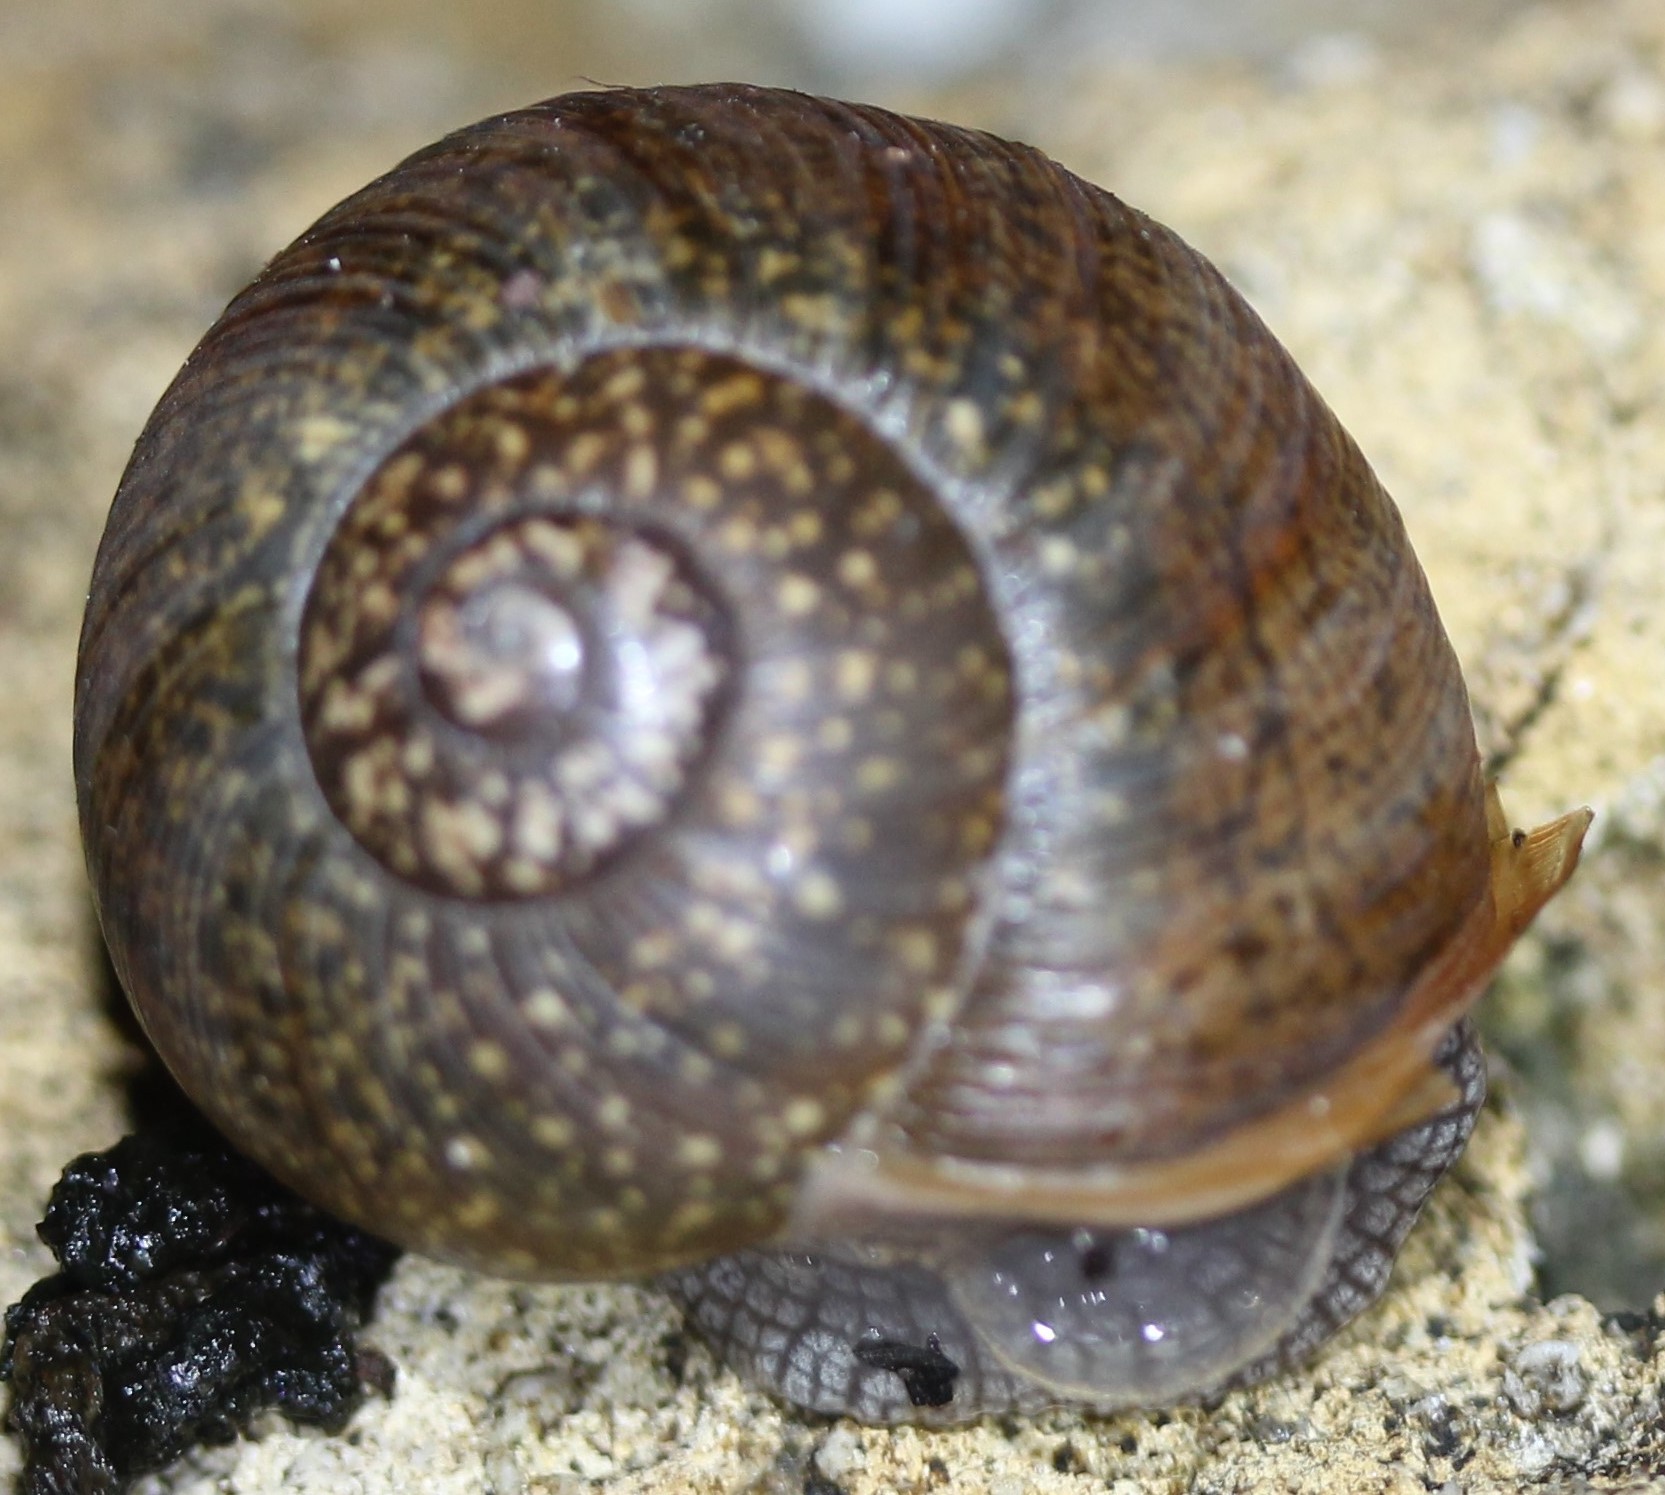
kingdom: Animalia
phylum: Mollusca
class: Gastropoda
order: Stylommatophora
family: Zachrysiidae
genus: Zachrysia
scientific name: Zachrysia provisoria
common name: Garden zachrysia
